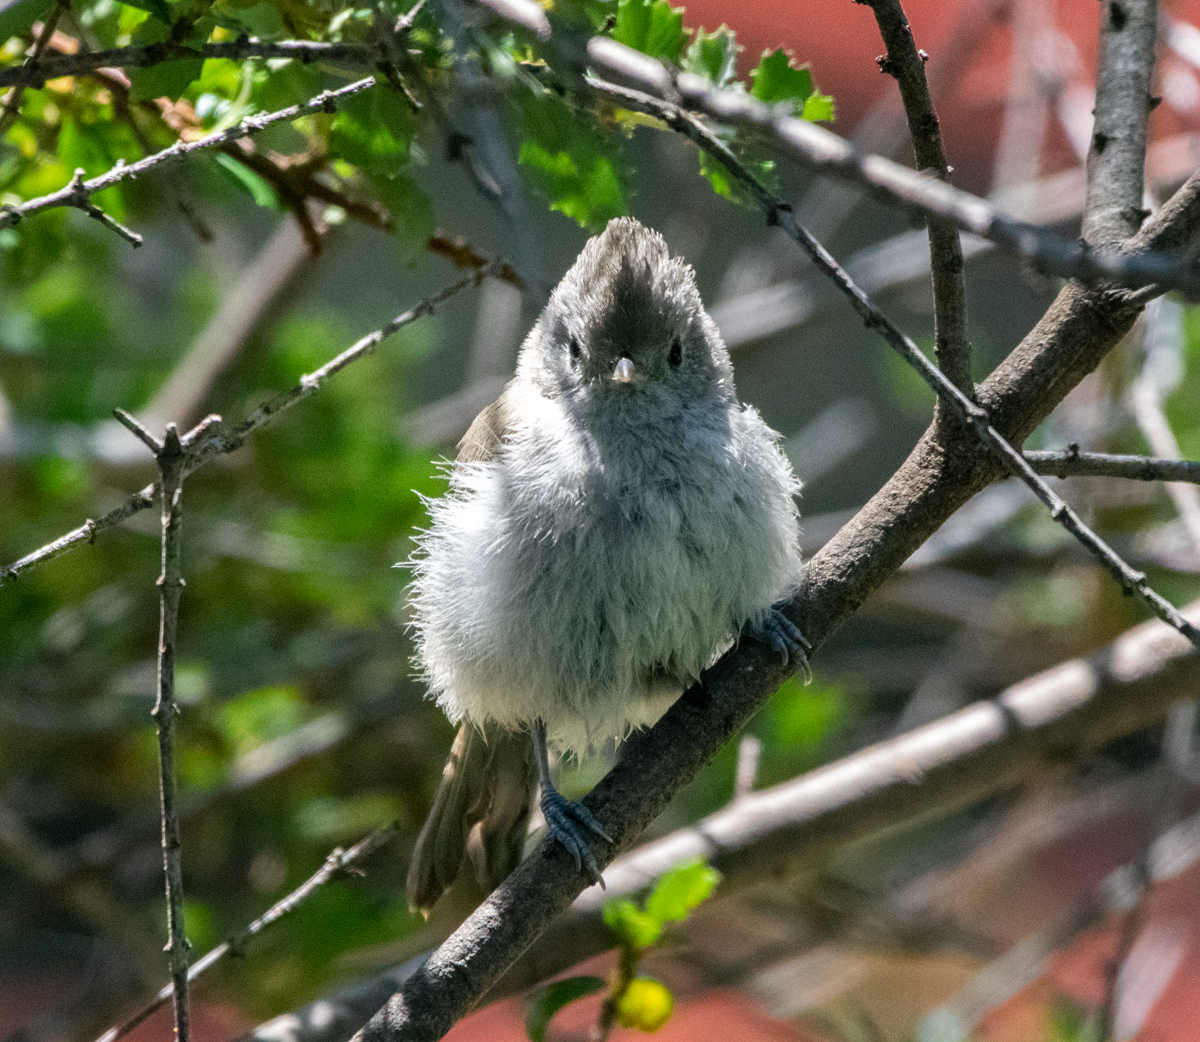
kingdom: Animalia
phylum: Chordata
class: Aves
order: Passeriformes
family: Paridae
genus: Baeolophus
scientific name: Baeolophus inornatus
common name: Oak titmouse
